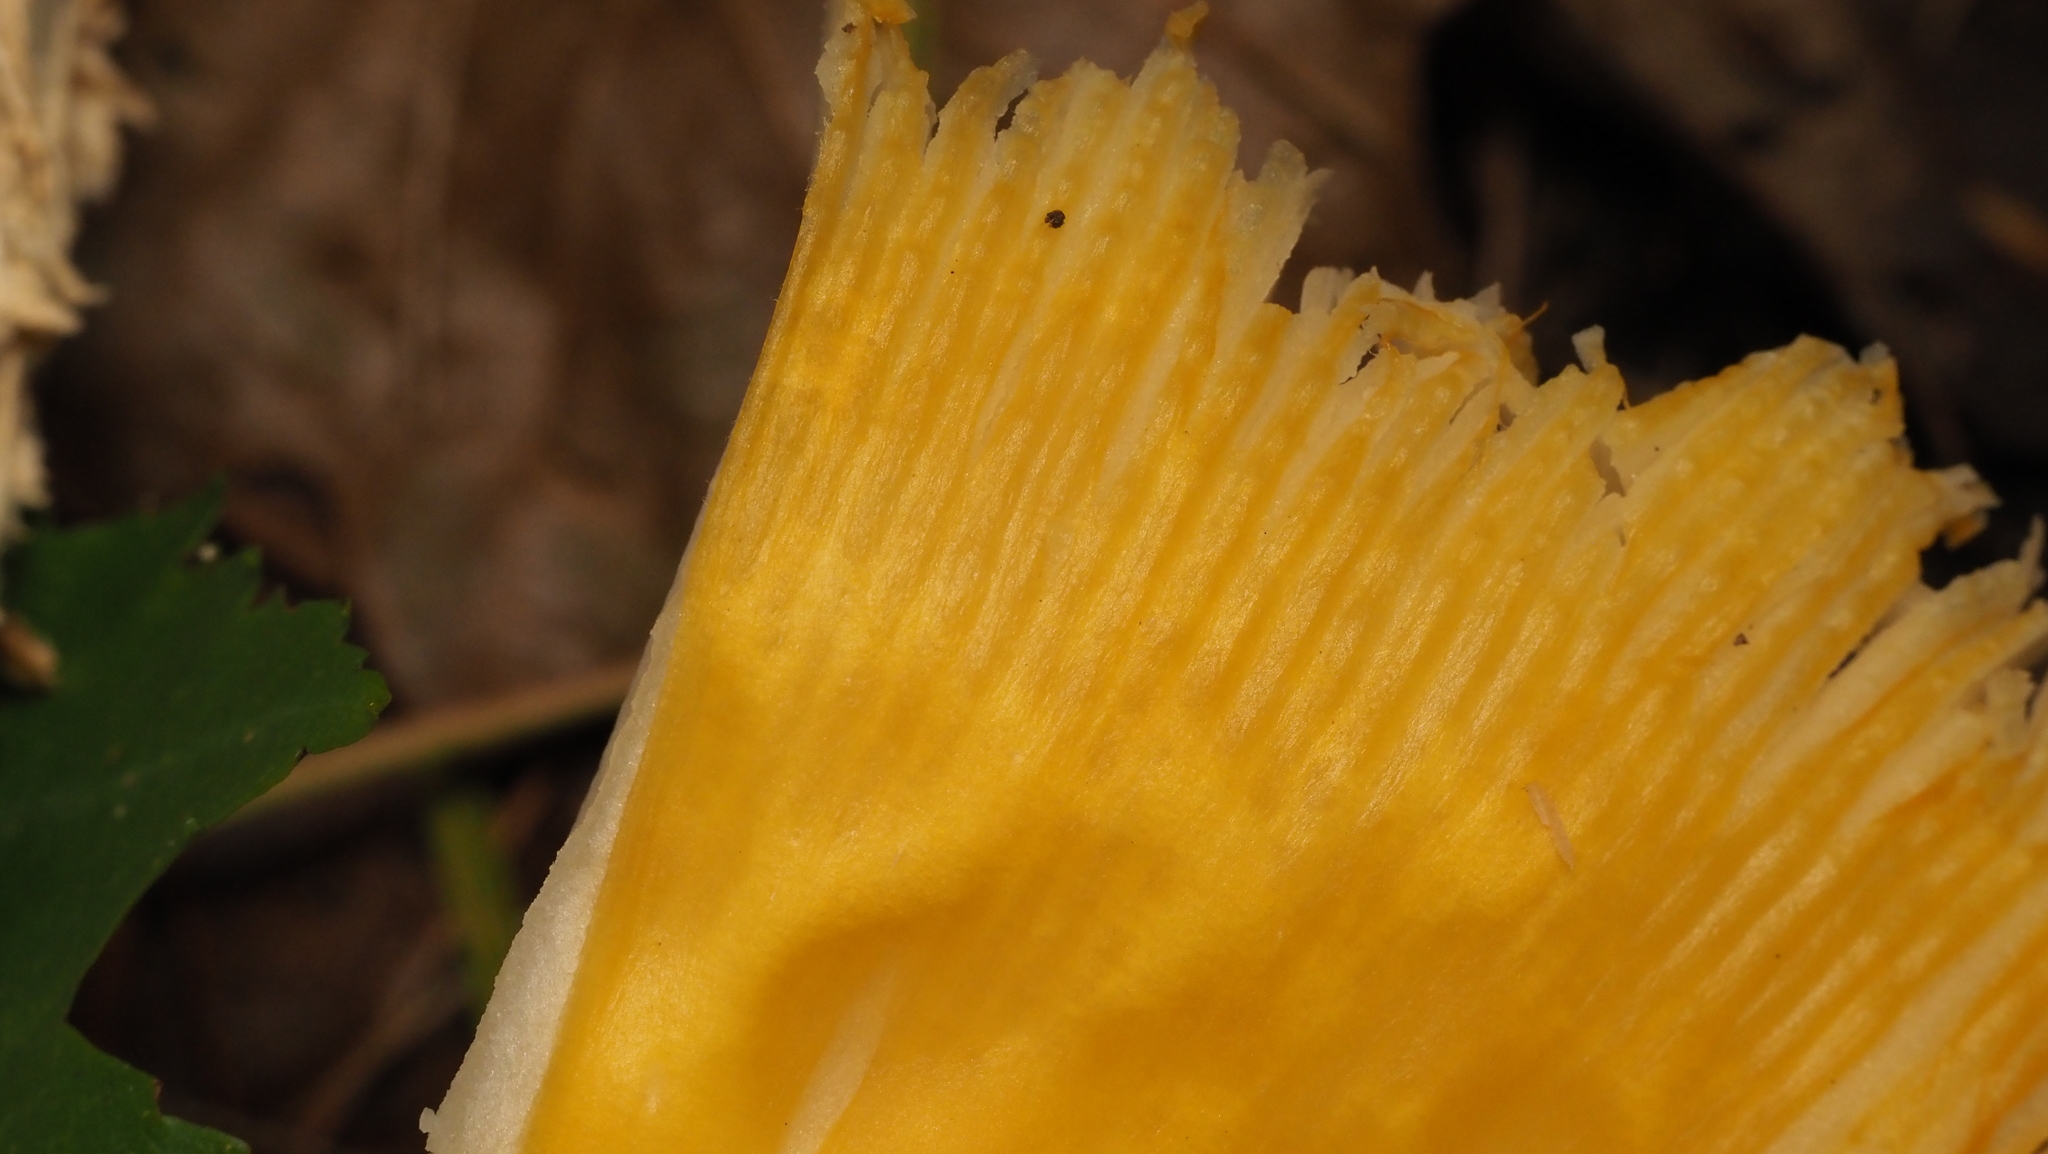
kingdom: Fungi
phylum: Basidiomycota
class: Agaricomycetes
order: Agaricales
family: Amanitaceae
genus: Amanita
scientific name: Amanita muscaria
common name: Fly agaric
